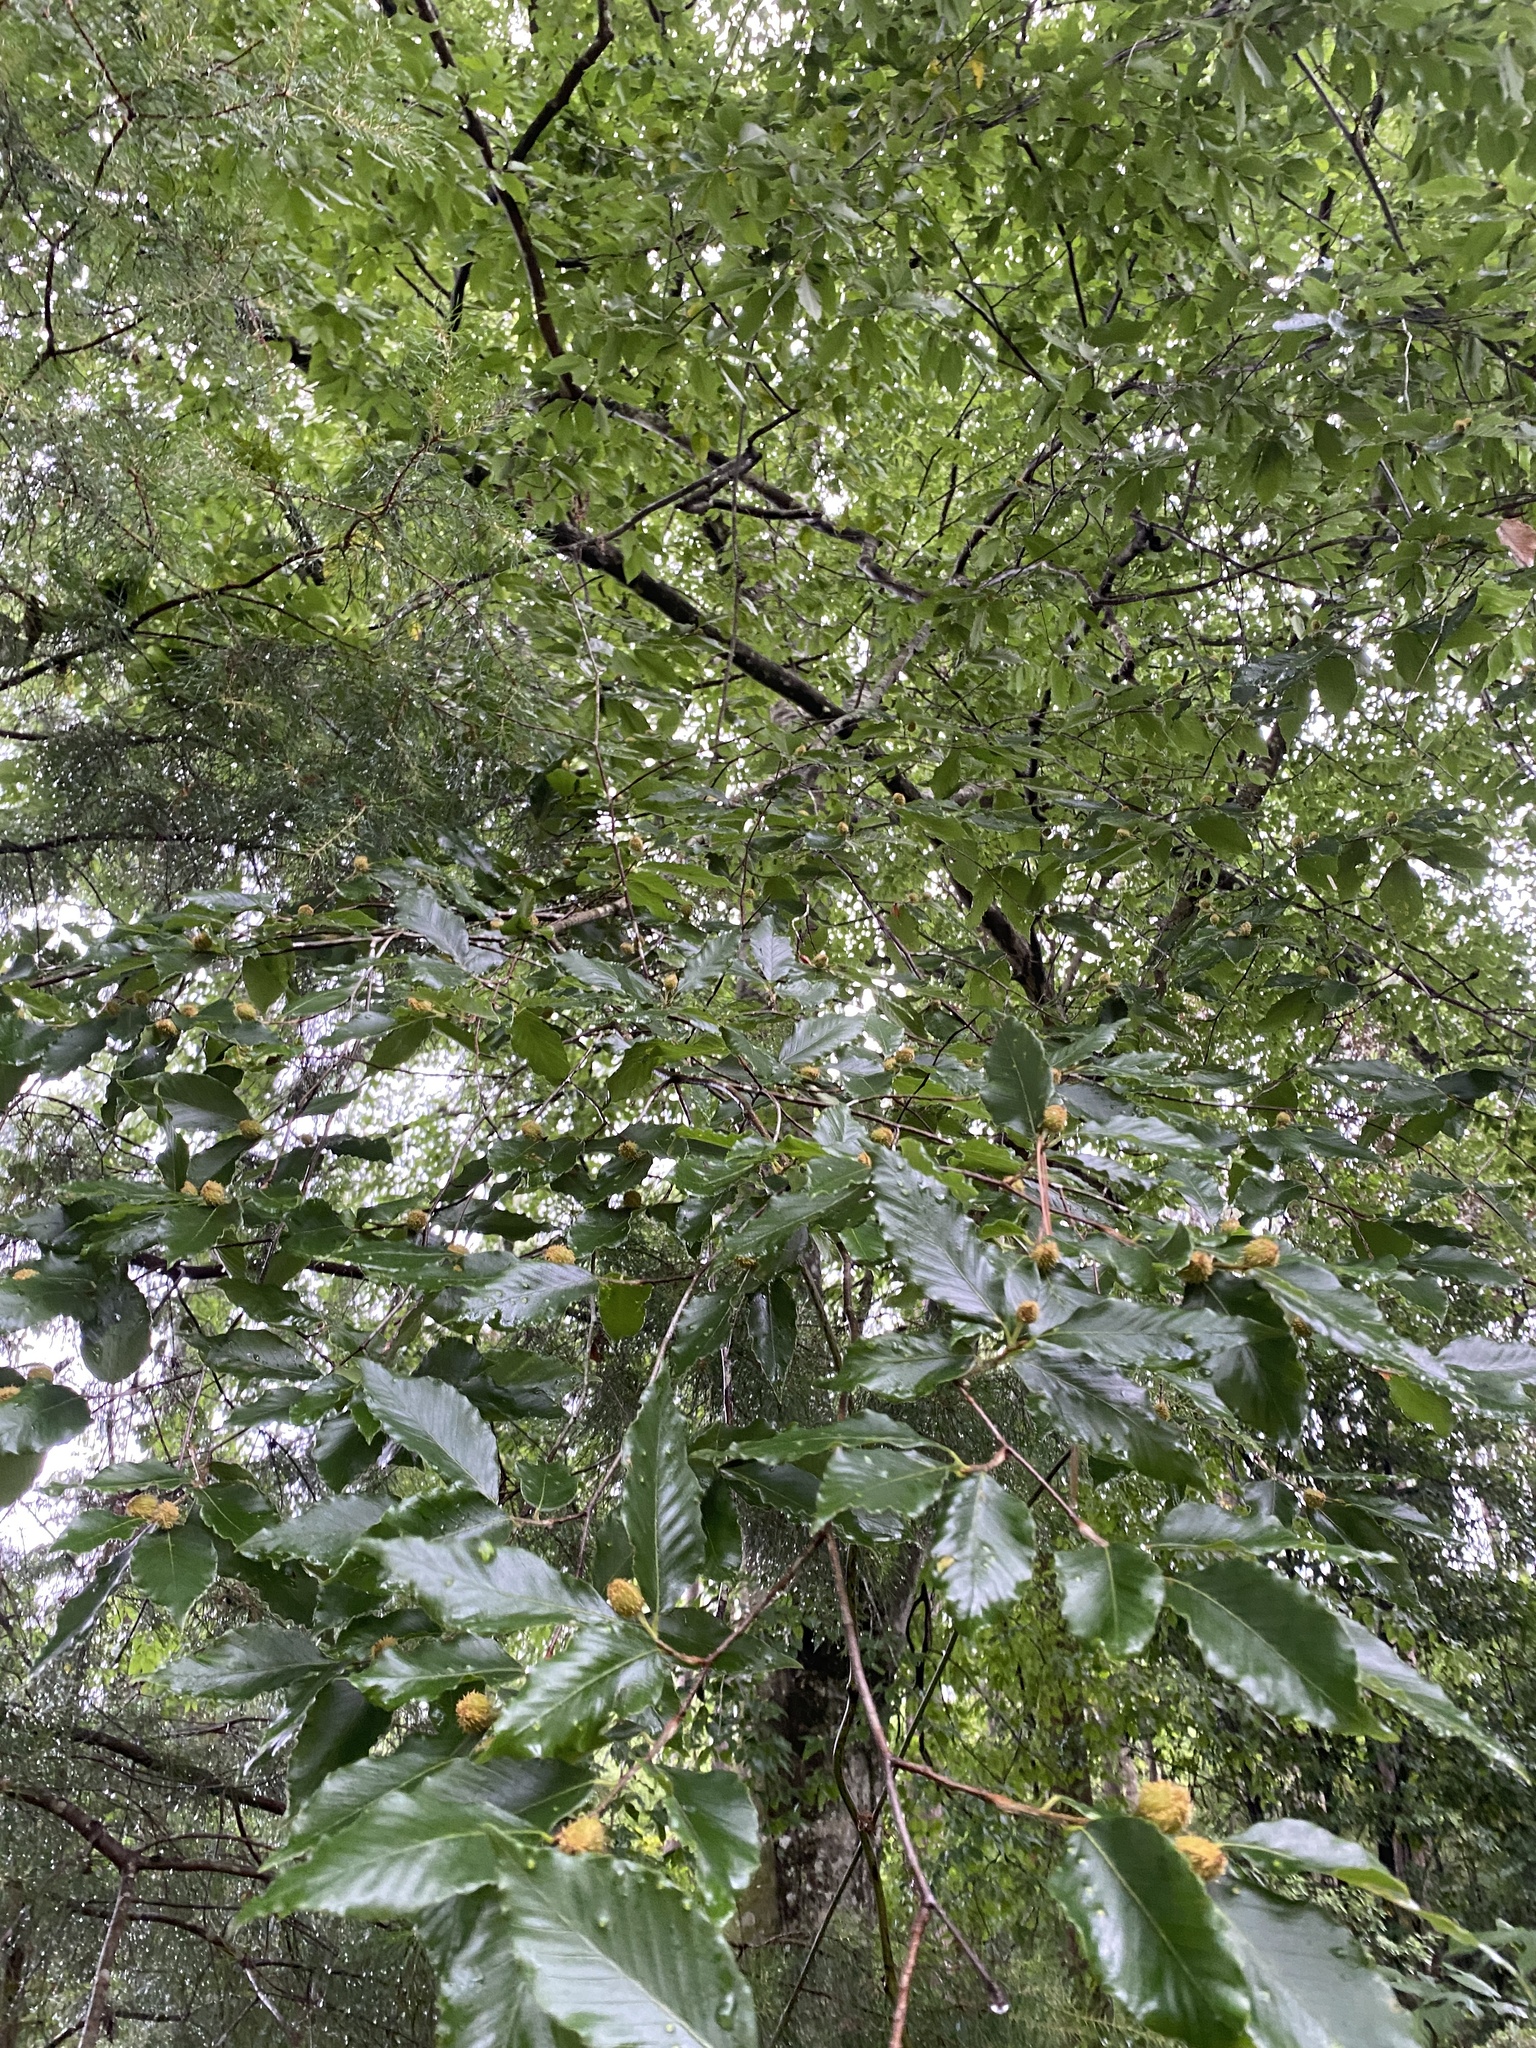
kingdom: Plantae
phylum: Tracheophyta
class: Magnoliopsida
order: Fagales
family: Fagaceae
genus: Fagus
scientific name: Fagus grandifolia
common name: American beech
